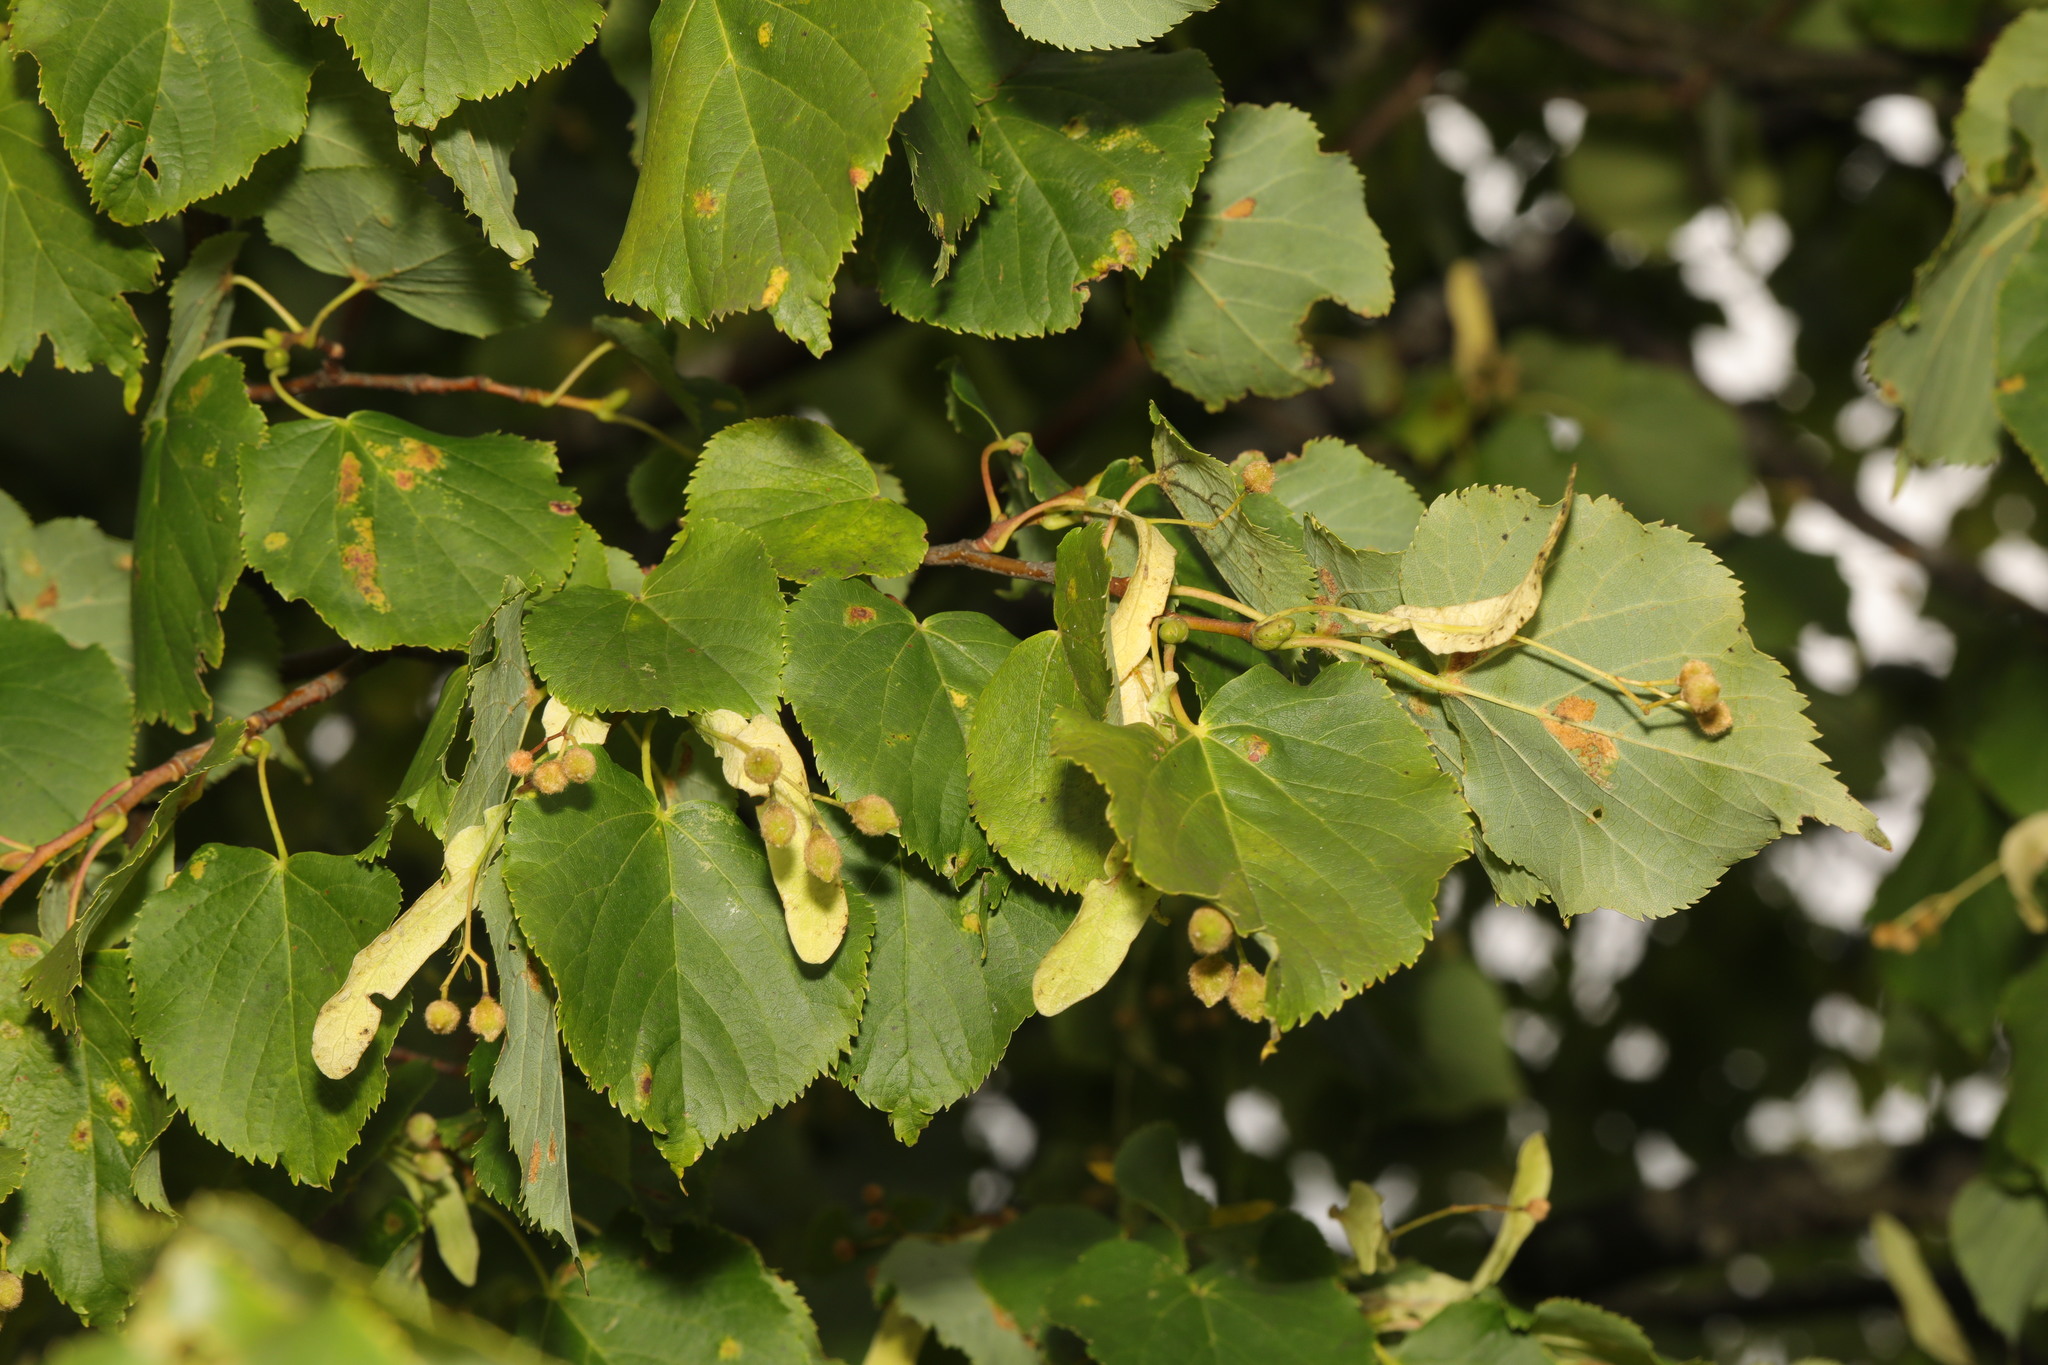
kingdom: Plantae
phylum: Tracheophyta
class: Magnoliopsida
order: Malvales
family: Malvaceae
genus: Tilia
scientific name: Tilia europaea
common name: European linden
